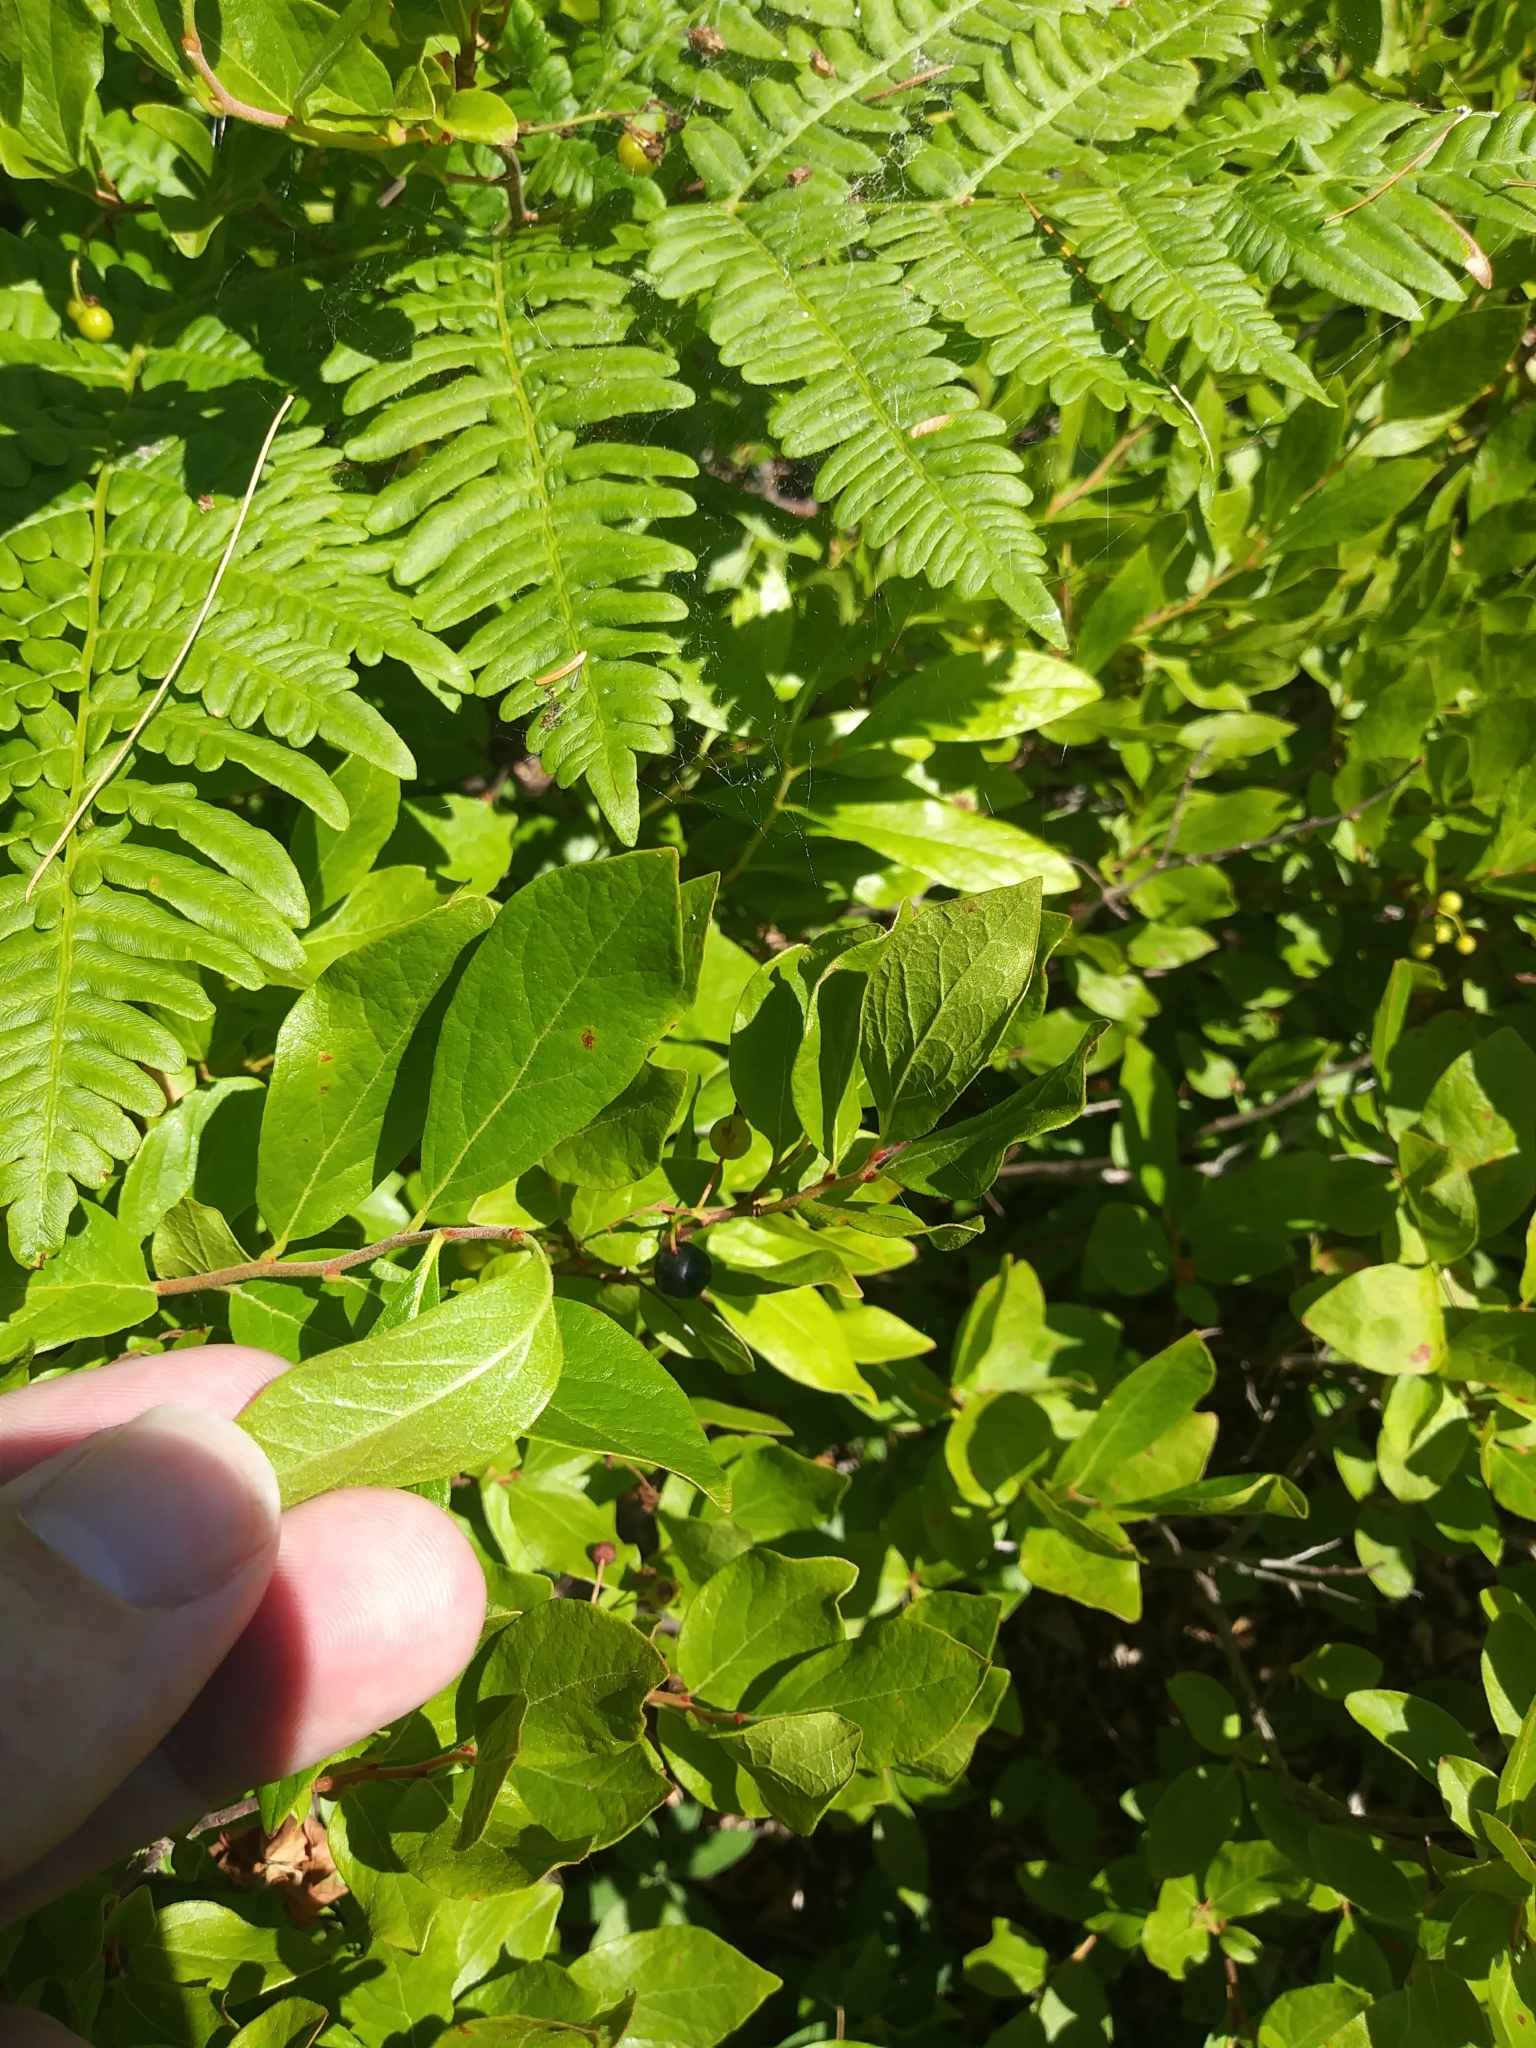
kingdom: Plantae
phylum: Tracheophyta
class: Magnoliopsida
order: Ericales
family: Ericaceae
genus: Gaylussacia
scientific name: Gaylussacia baccata
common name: Black huckleberry
